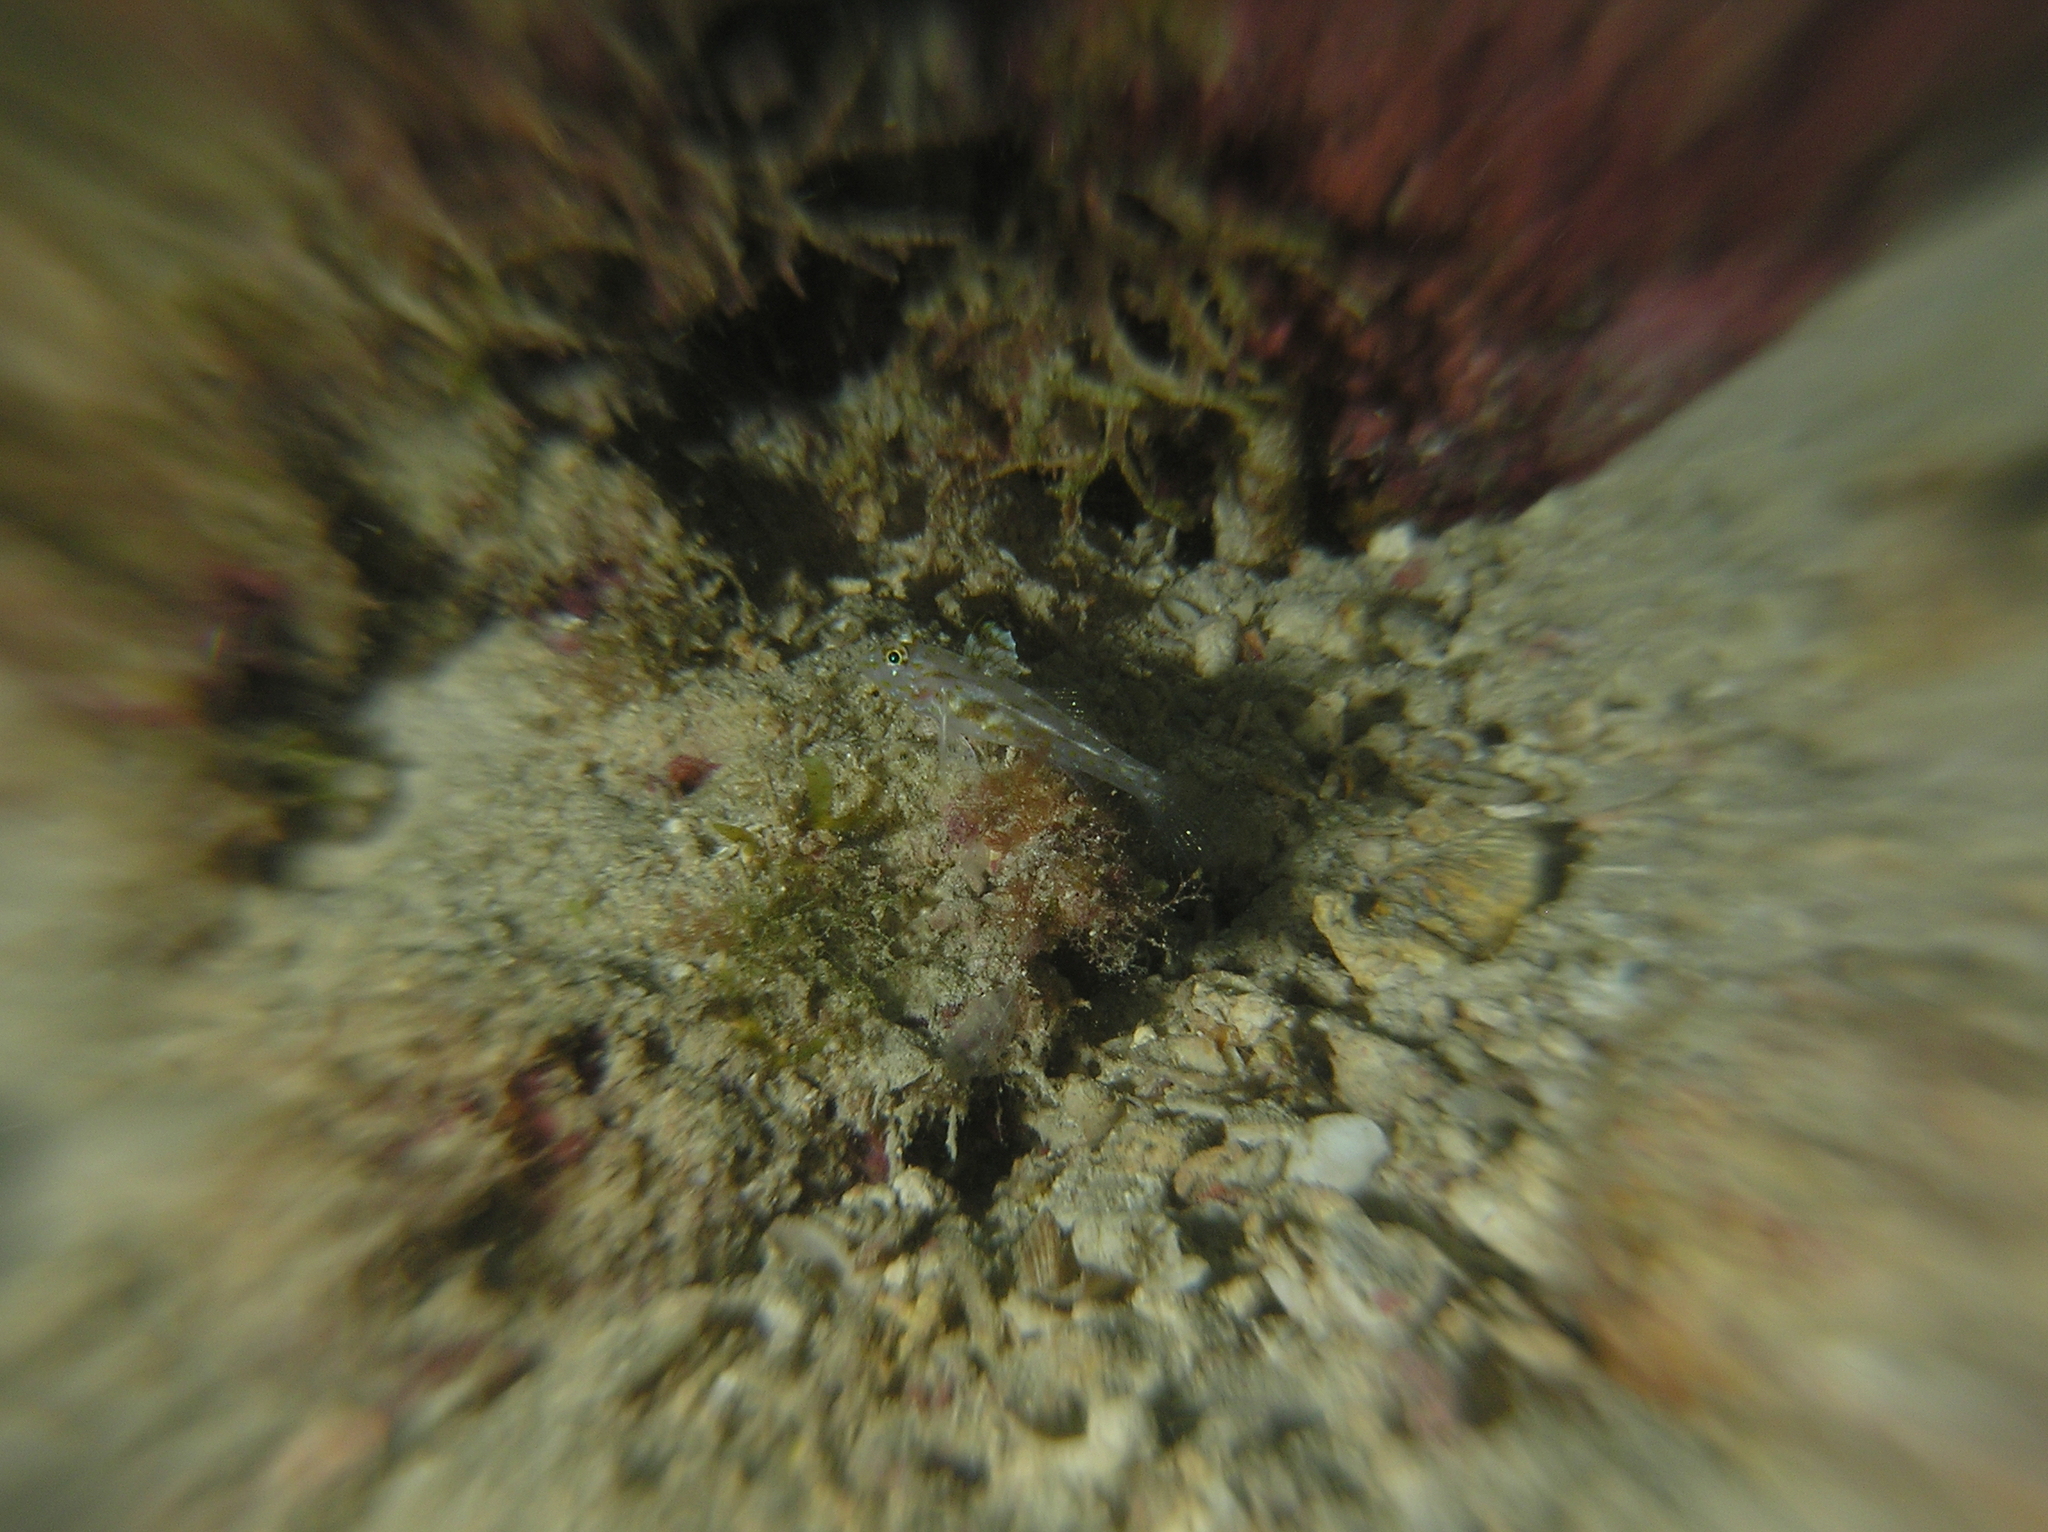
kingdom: Animalia
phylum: Chordata
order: Perciformes
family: Gobiidae
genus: Fusigobius
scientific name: Fusigobius aureus
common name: Golden sandgoby
